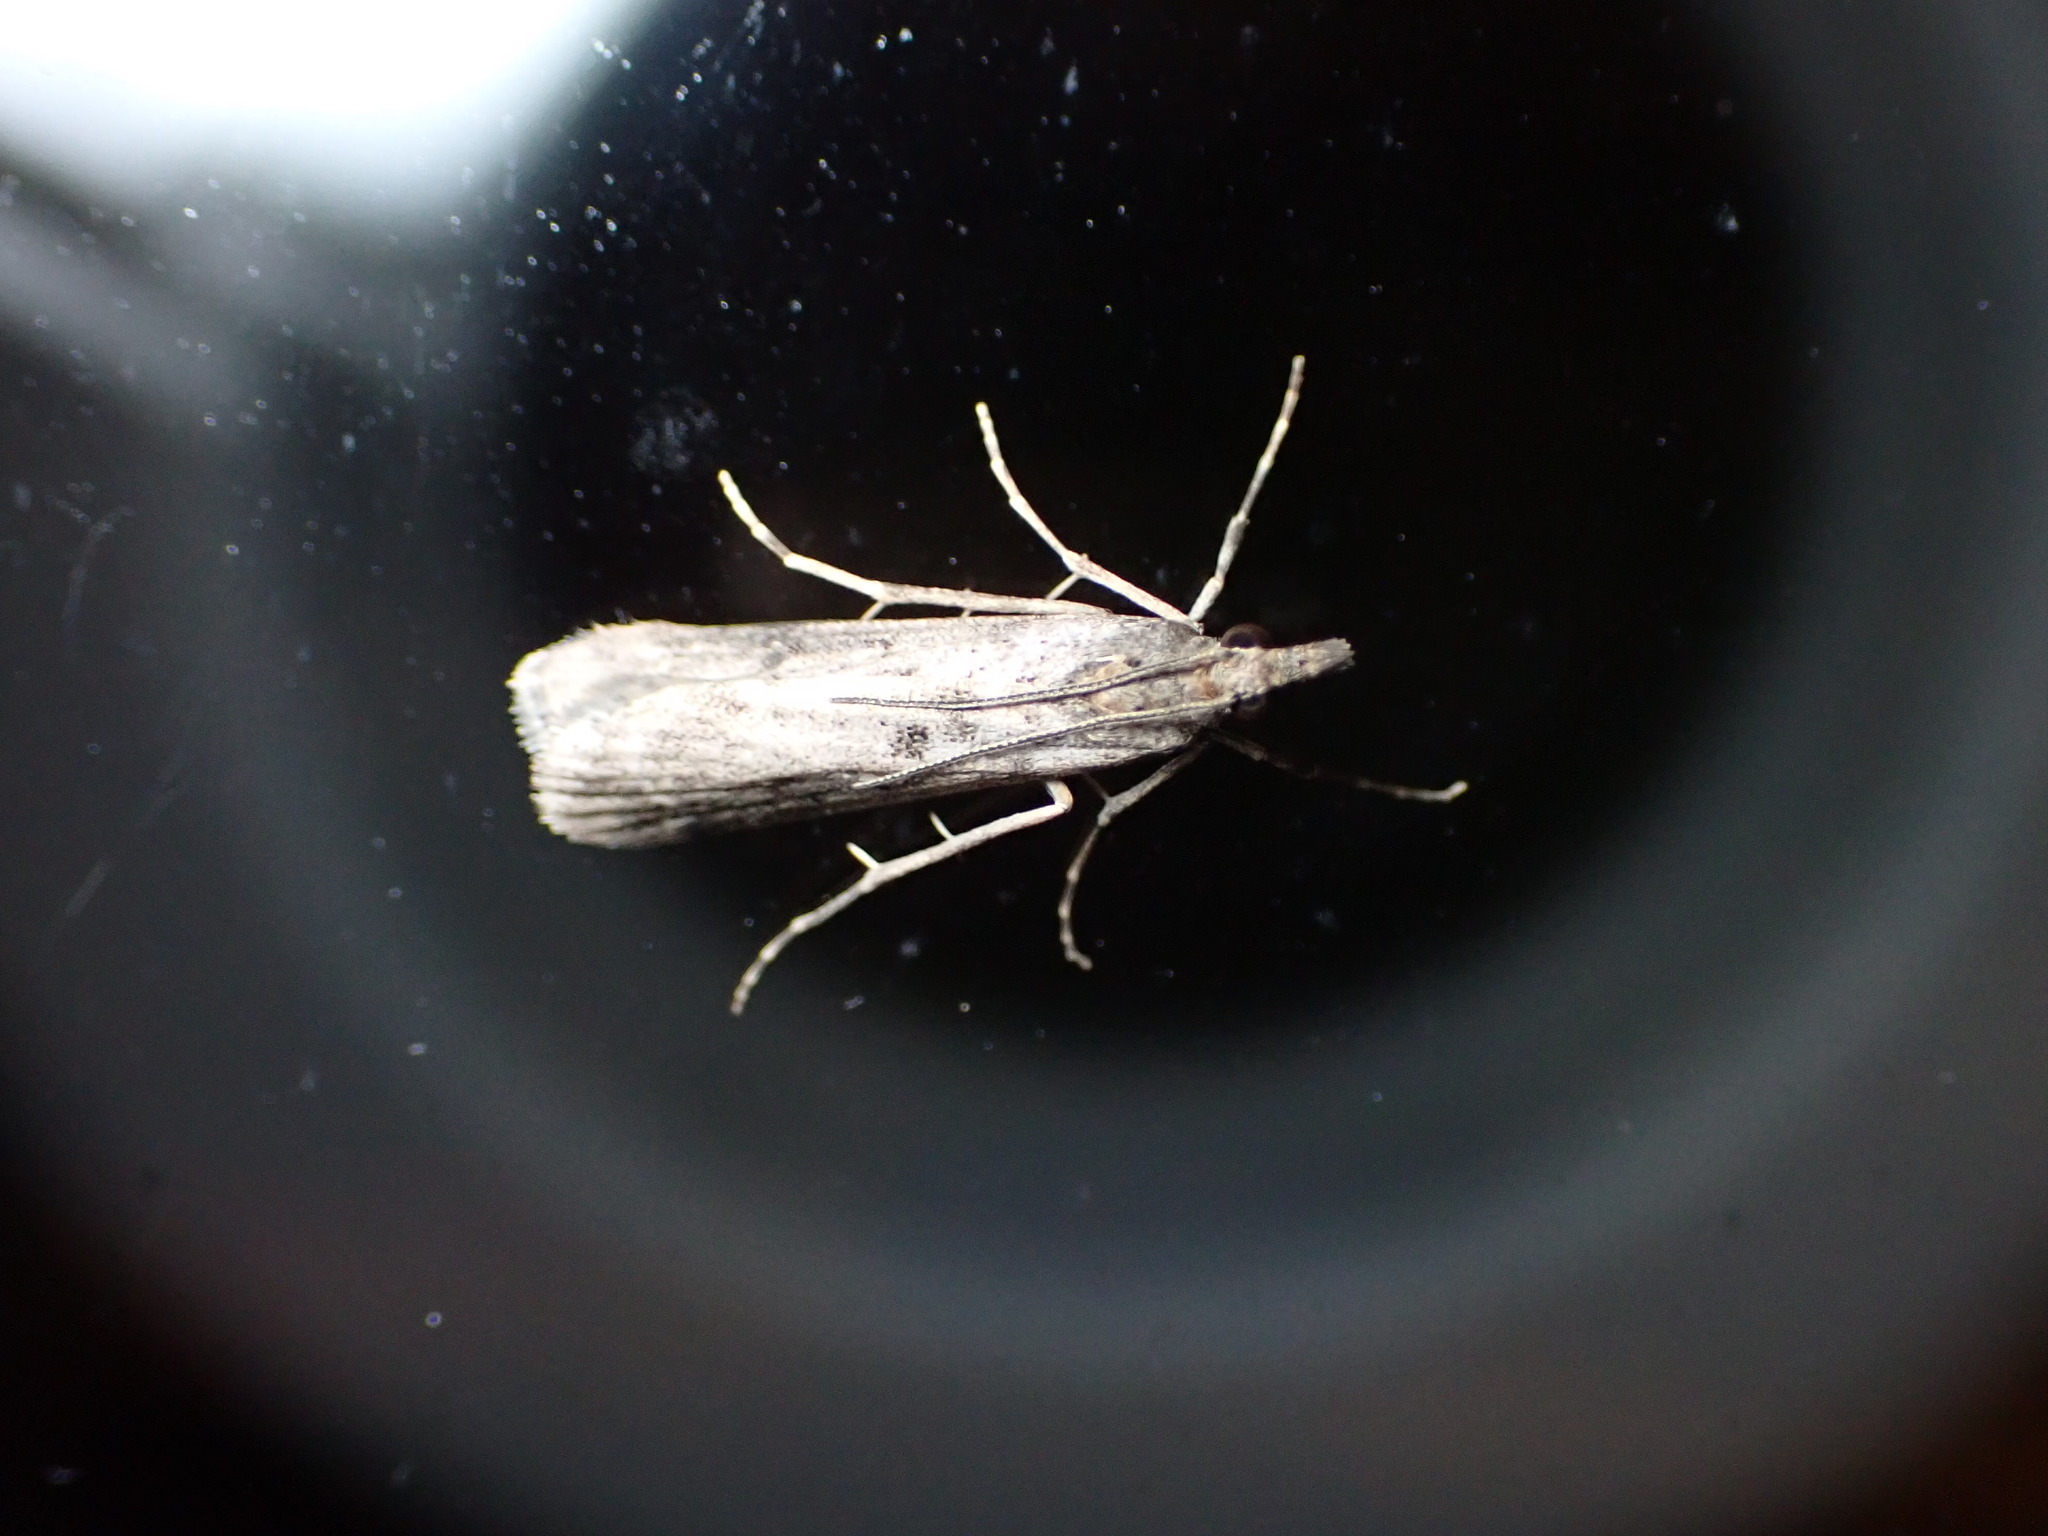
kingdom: Animalia
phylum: Arthropoda
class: Insecta
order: Lepidoptera
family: Crambidae
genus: Eudonia
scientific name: Eudonia leptalea
